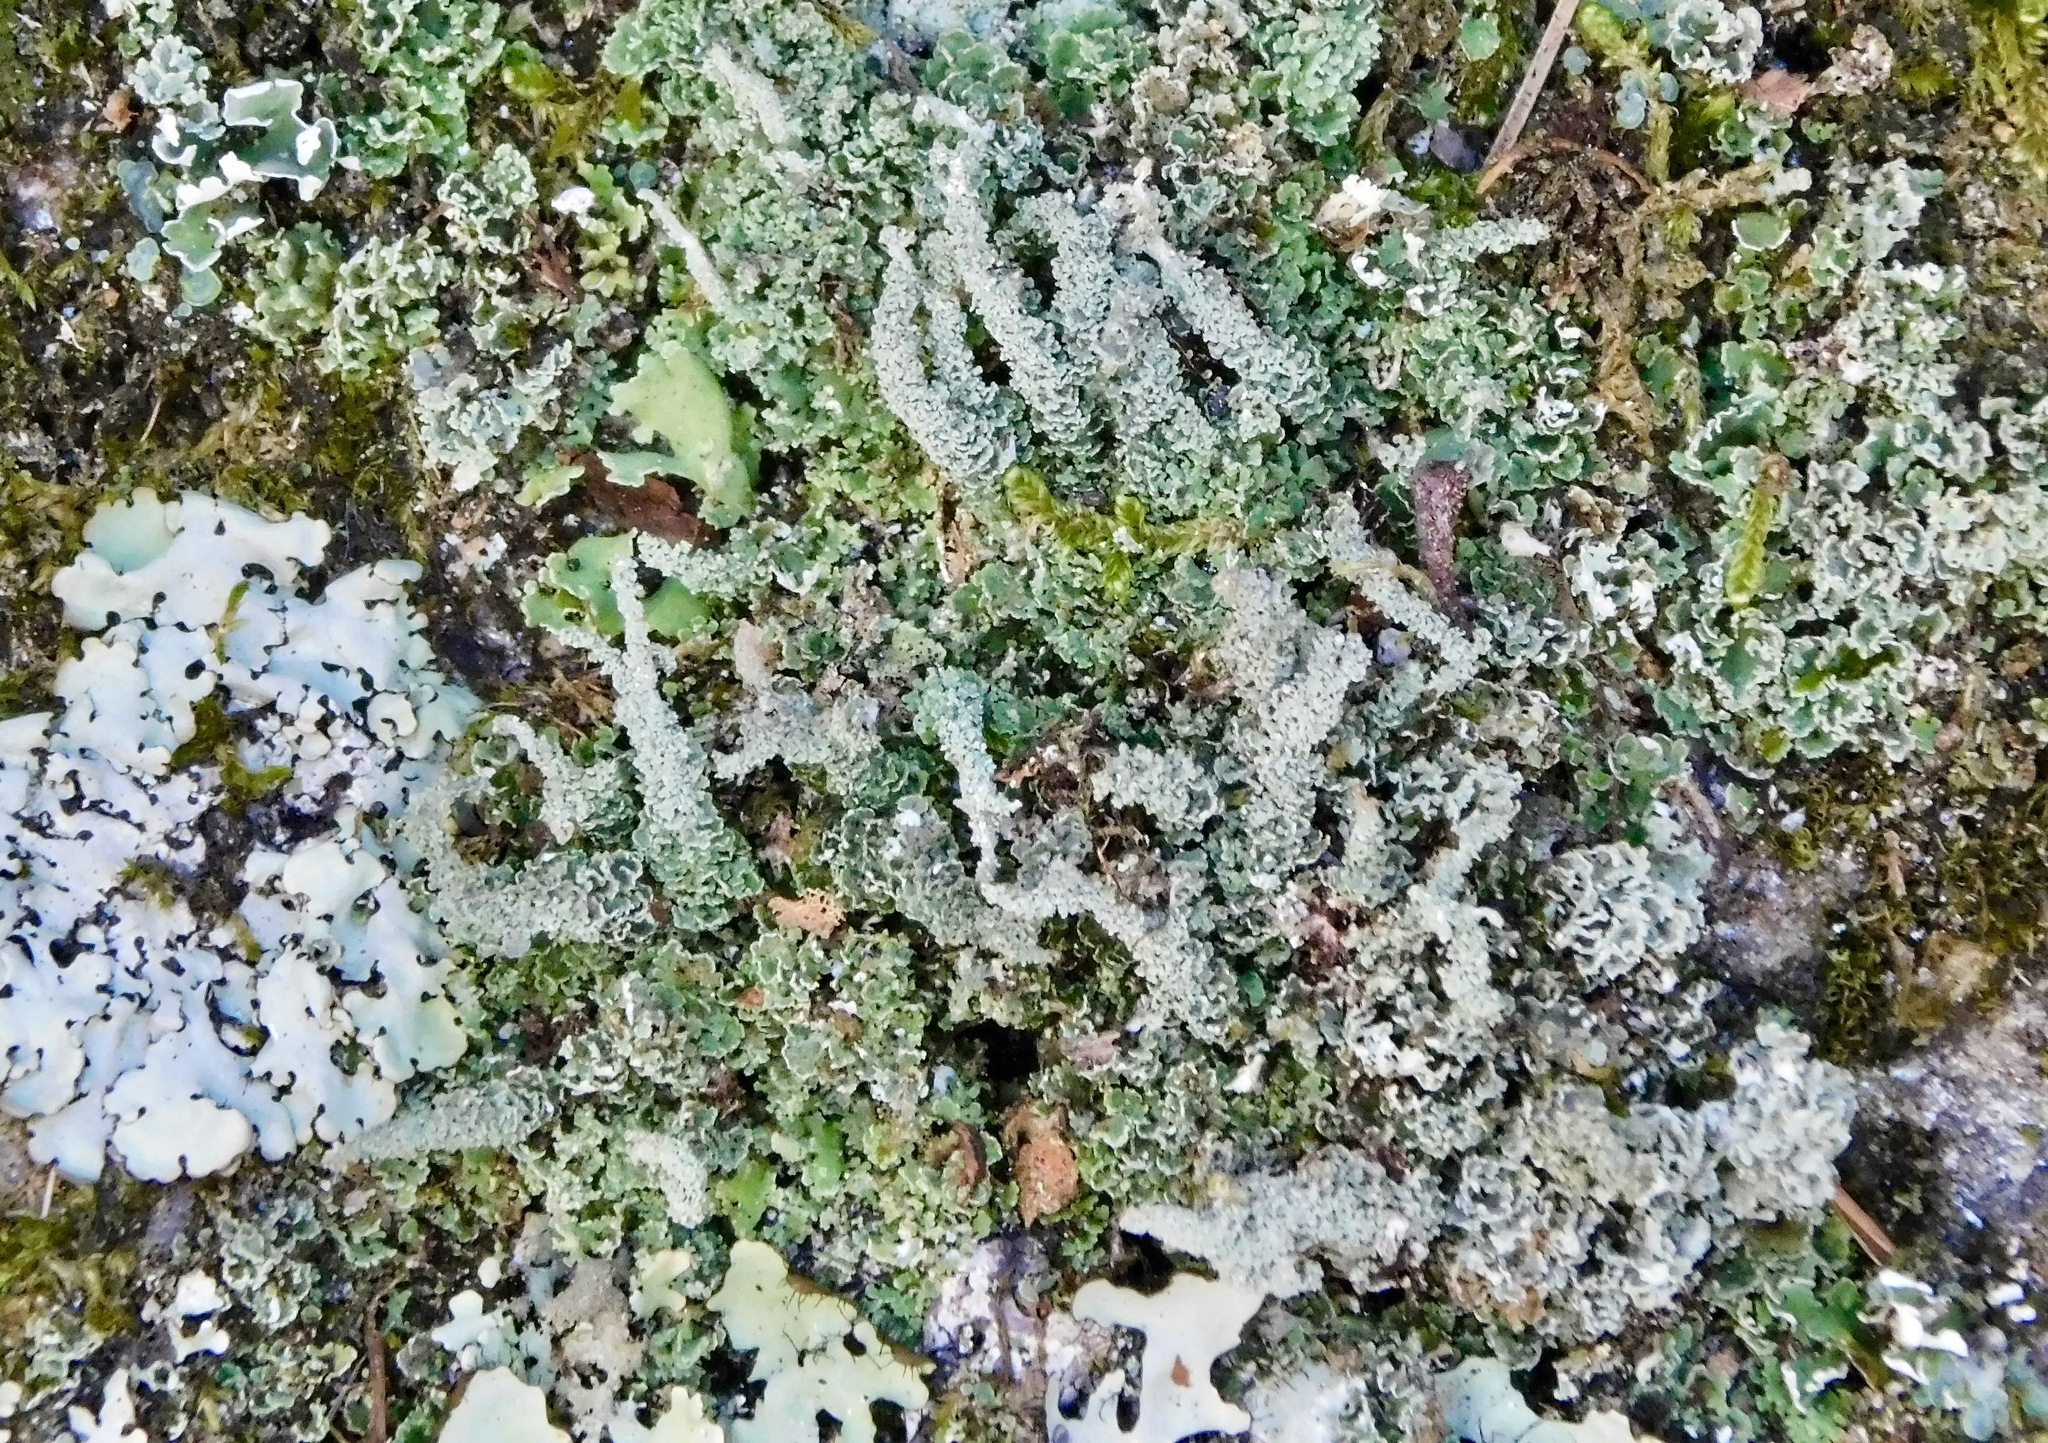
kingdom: Fungi
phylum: Ascomycota
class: Lecanoromycetes
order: Lecanorales
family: Cladoniaceae
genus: Cladonia
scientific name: Cladonia squamosa
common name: Dragon horn
